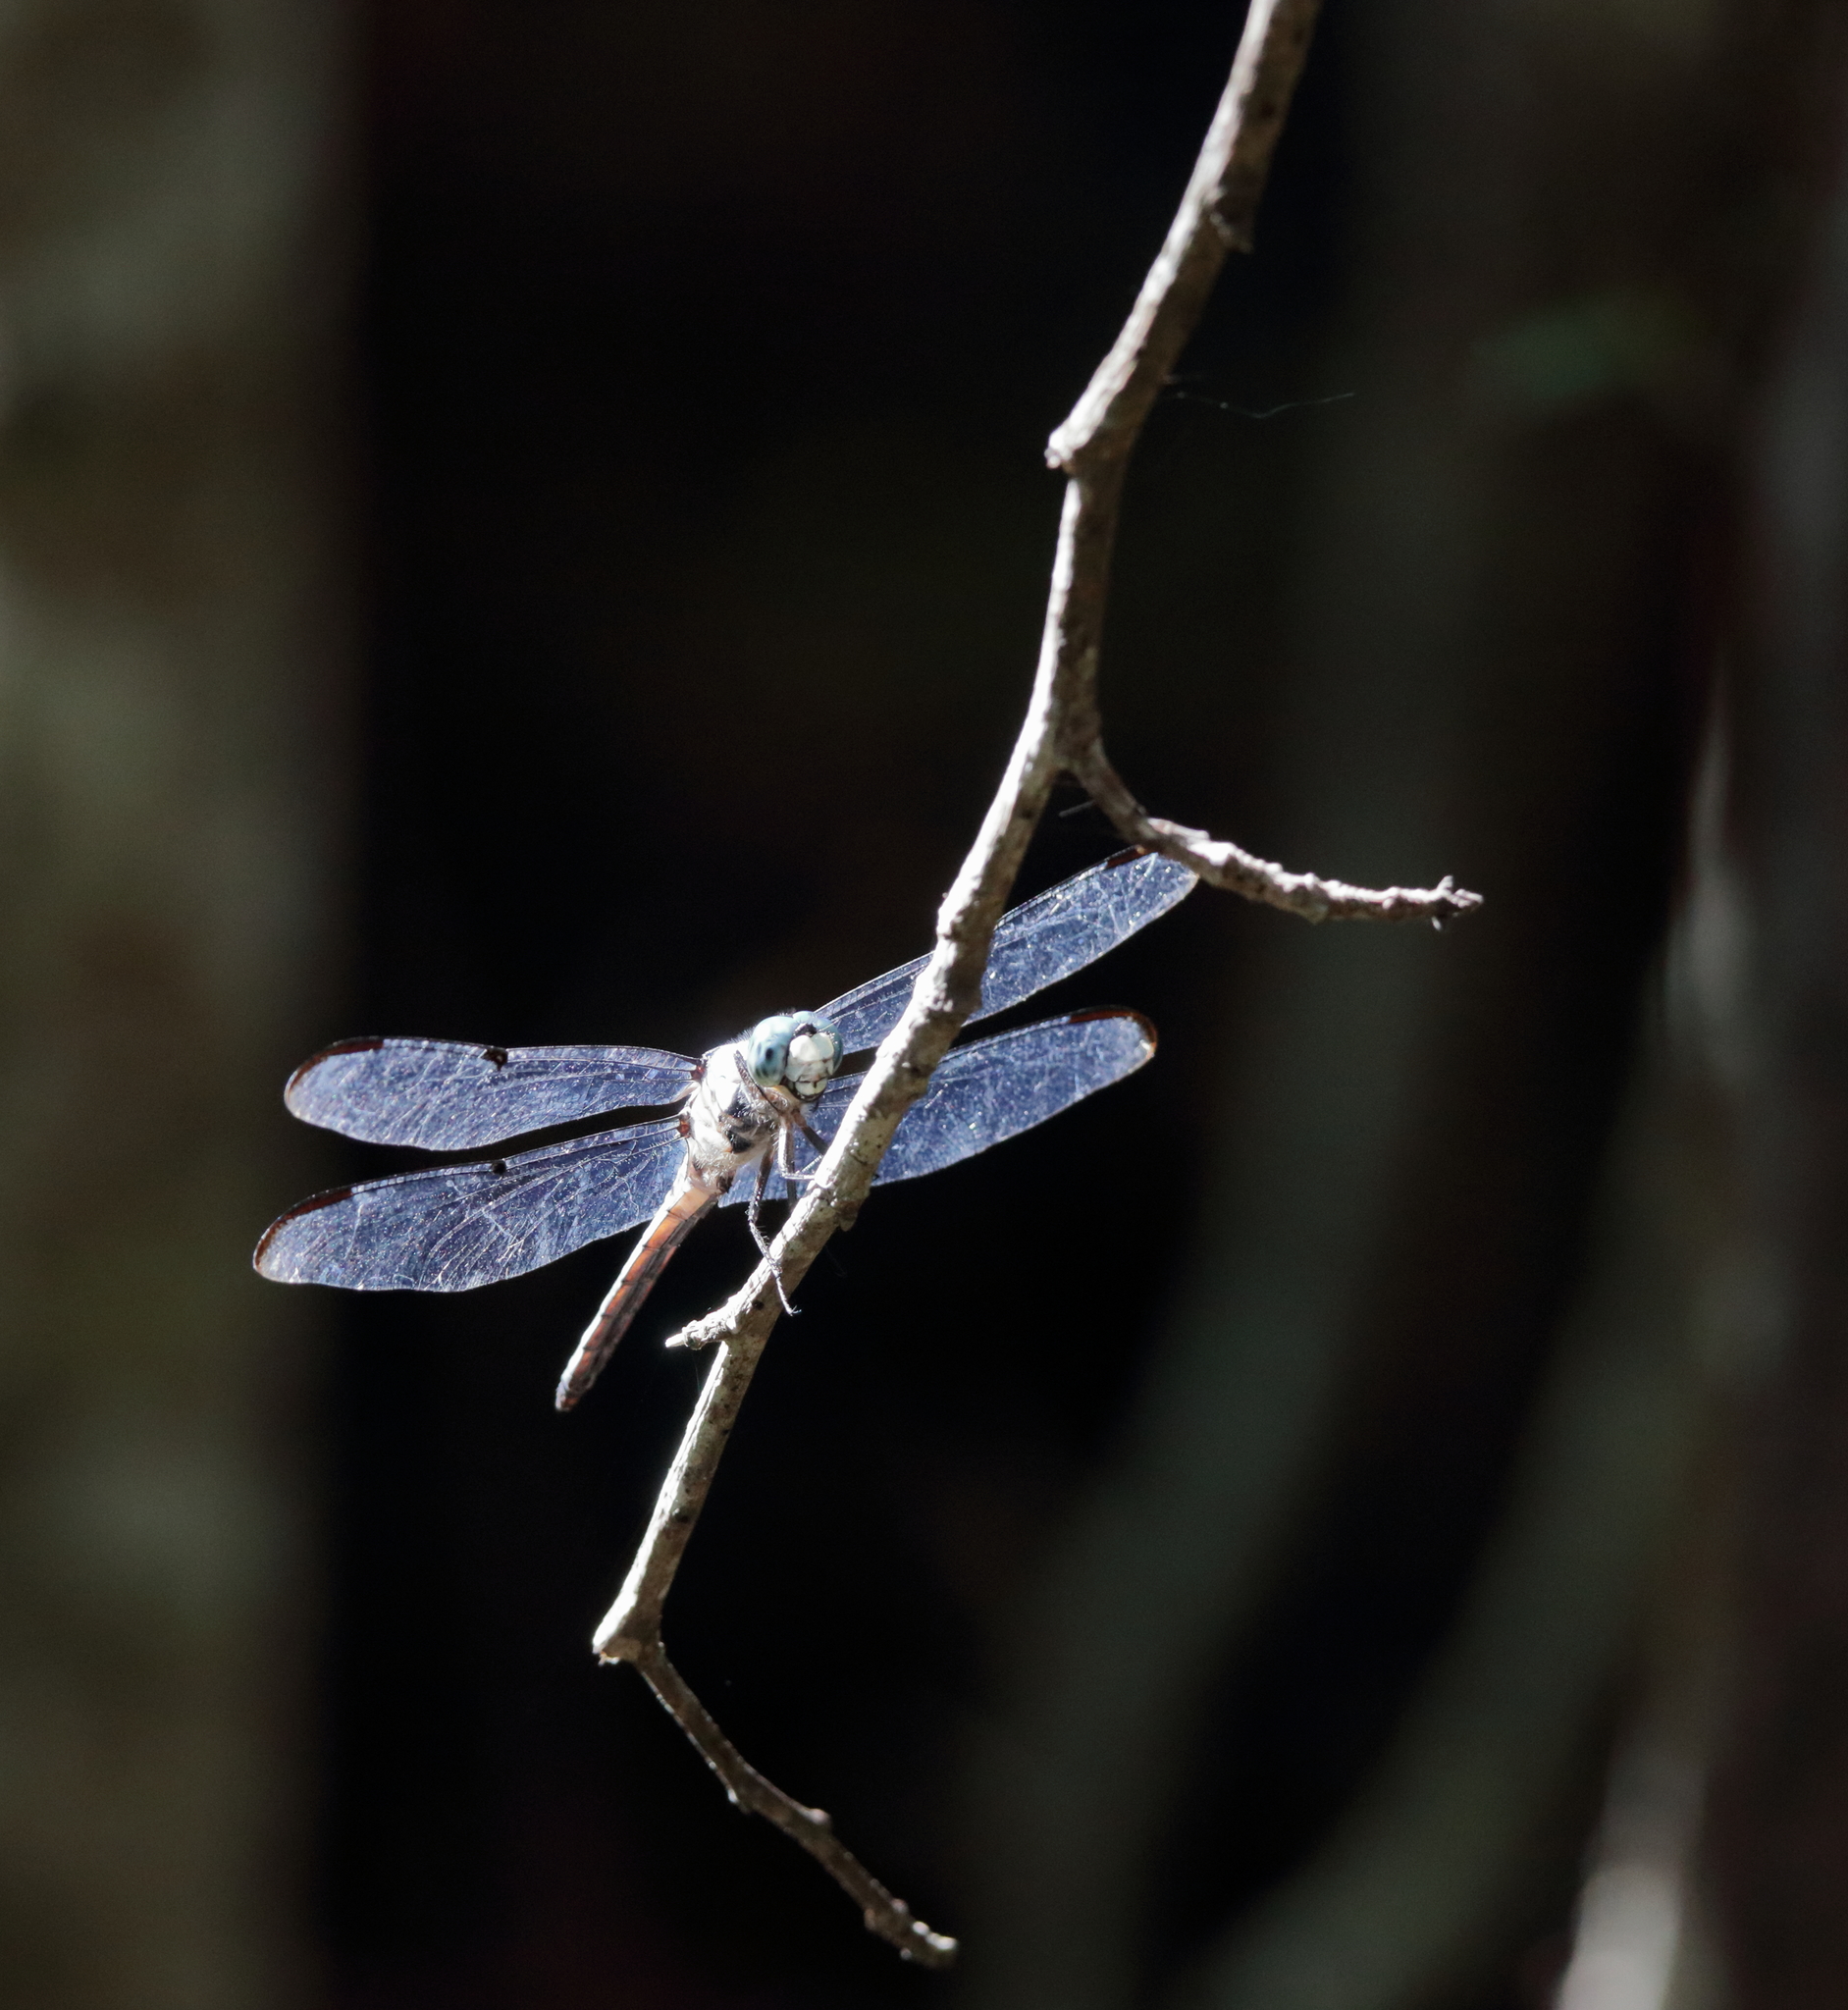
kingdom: Animalia
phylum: Arthropoda
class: Insecta
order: Odonata
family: Libellulidae
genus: Libellula
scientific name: Libellula vibrans
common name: Great blue skimmer
